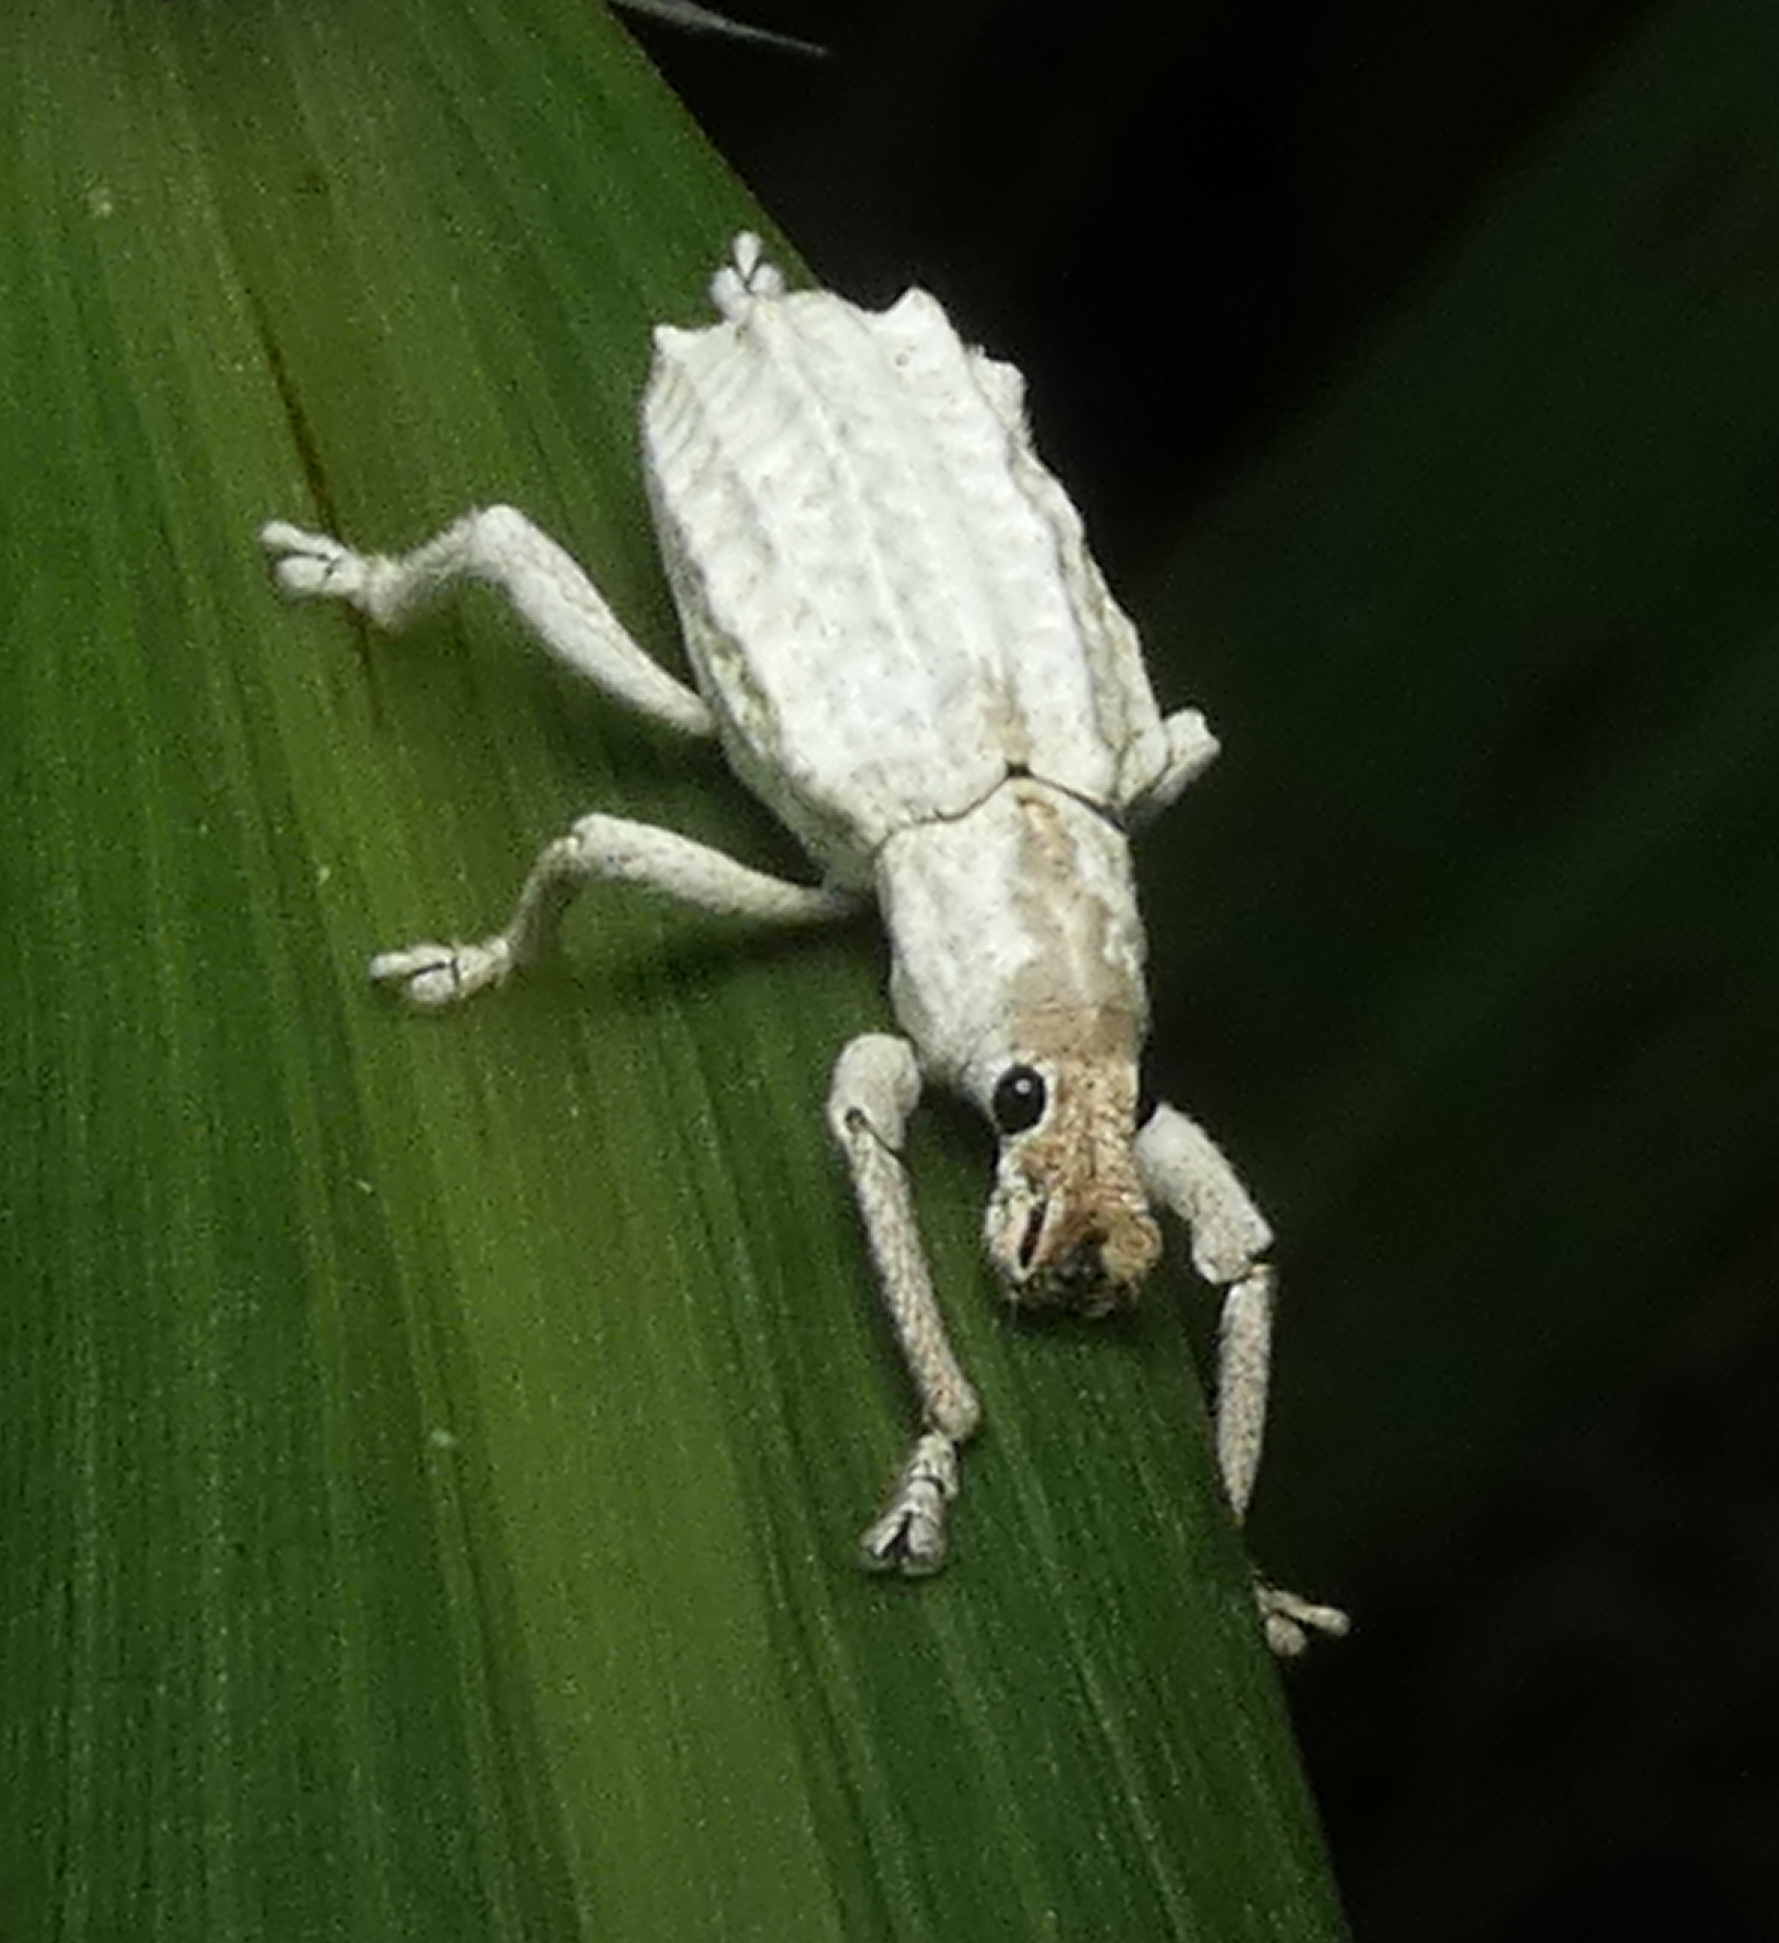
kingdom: Animalia
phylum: Arthropoda
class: Insecta
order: Coleoptera
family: Curculionidae
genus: Compsus
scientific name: Compsus niveus
